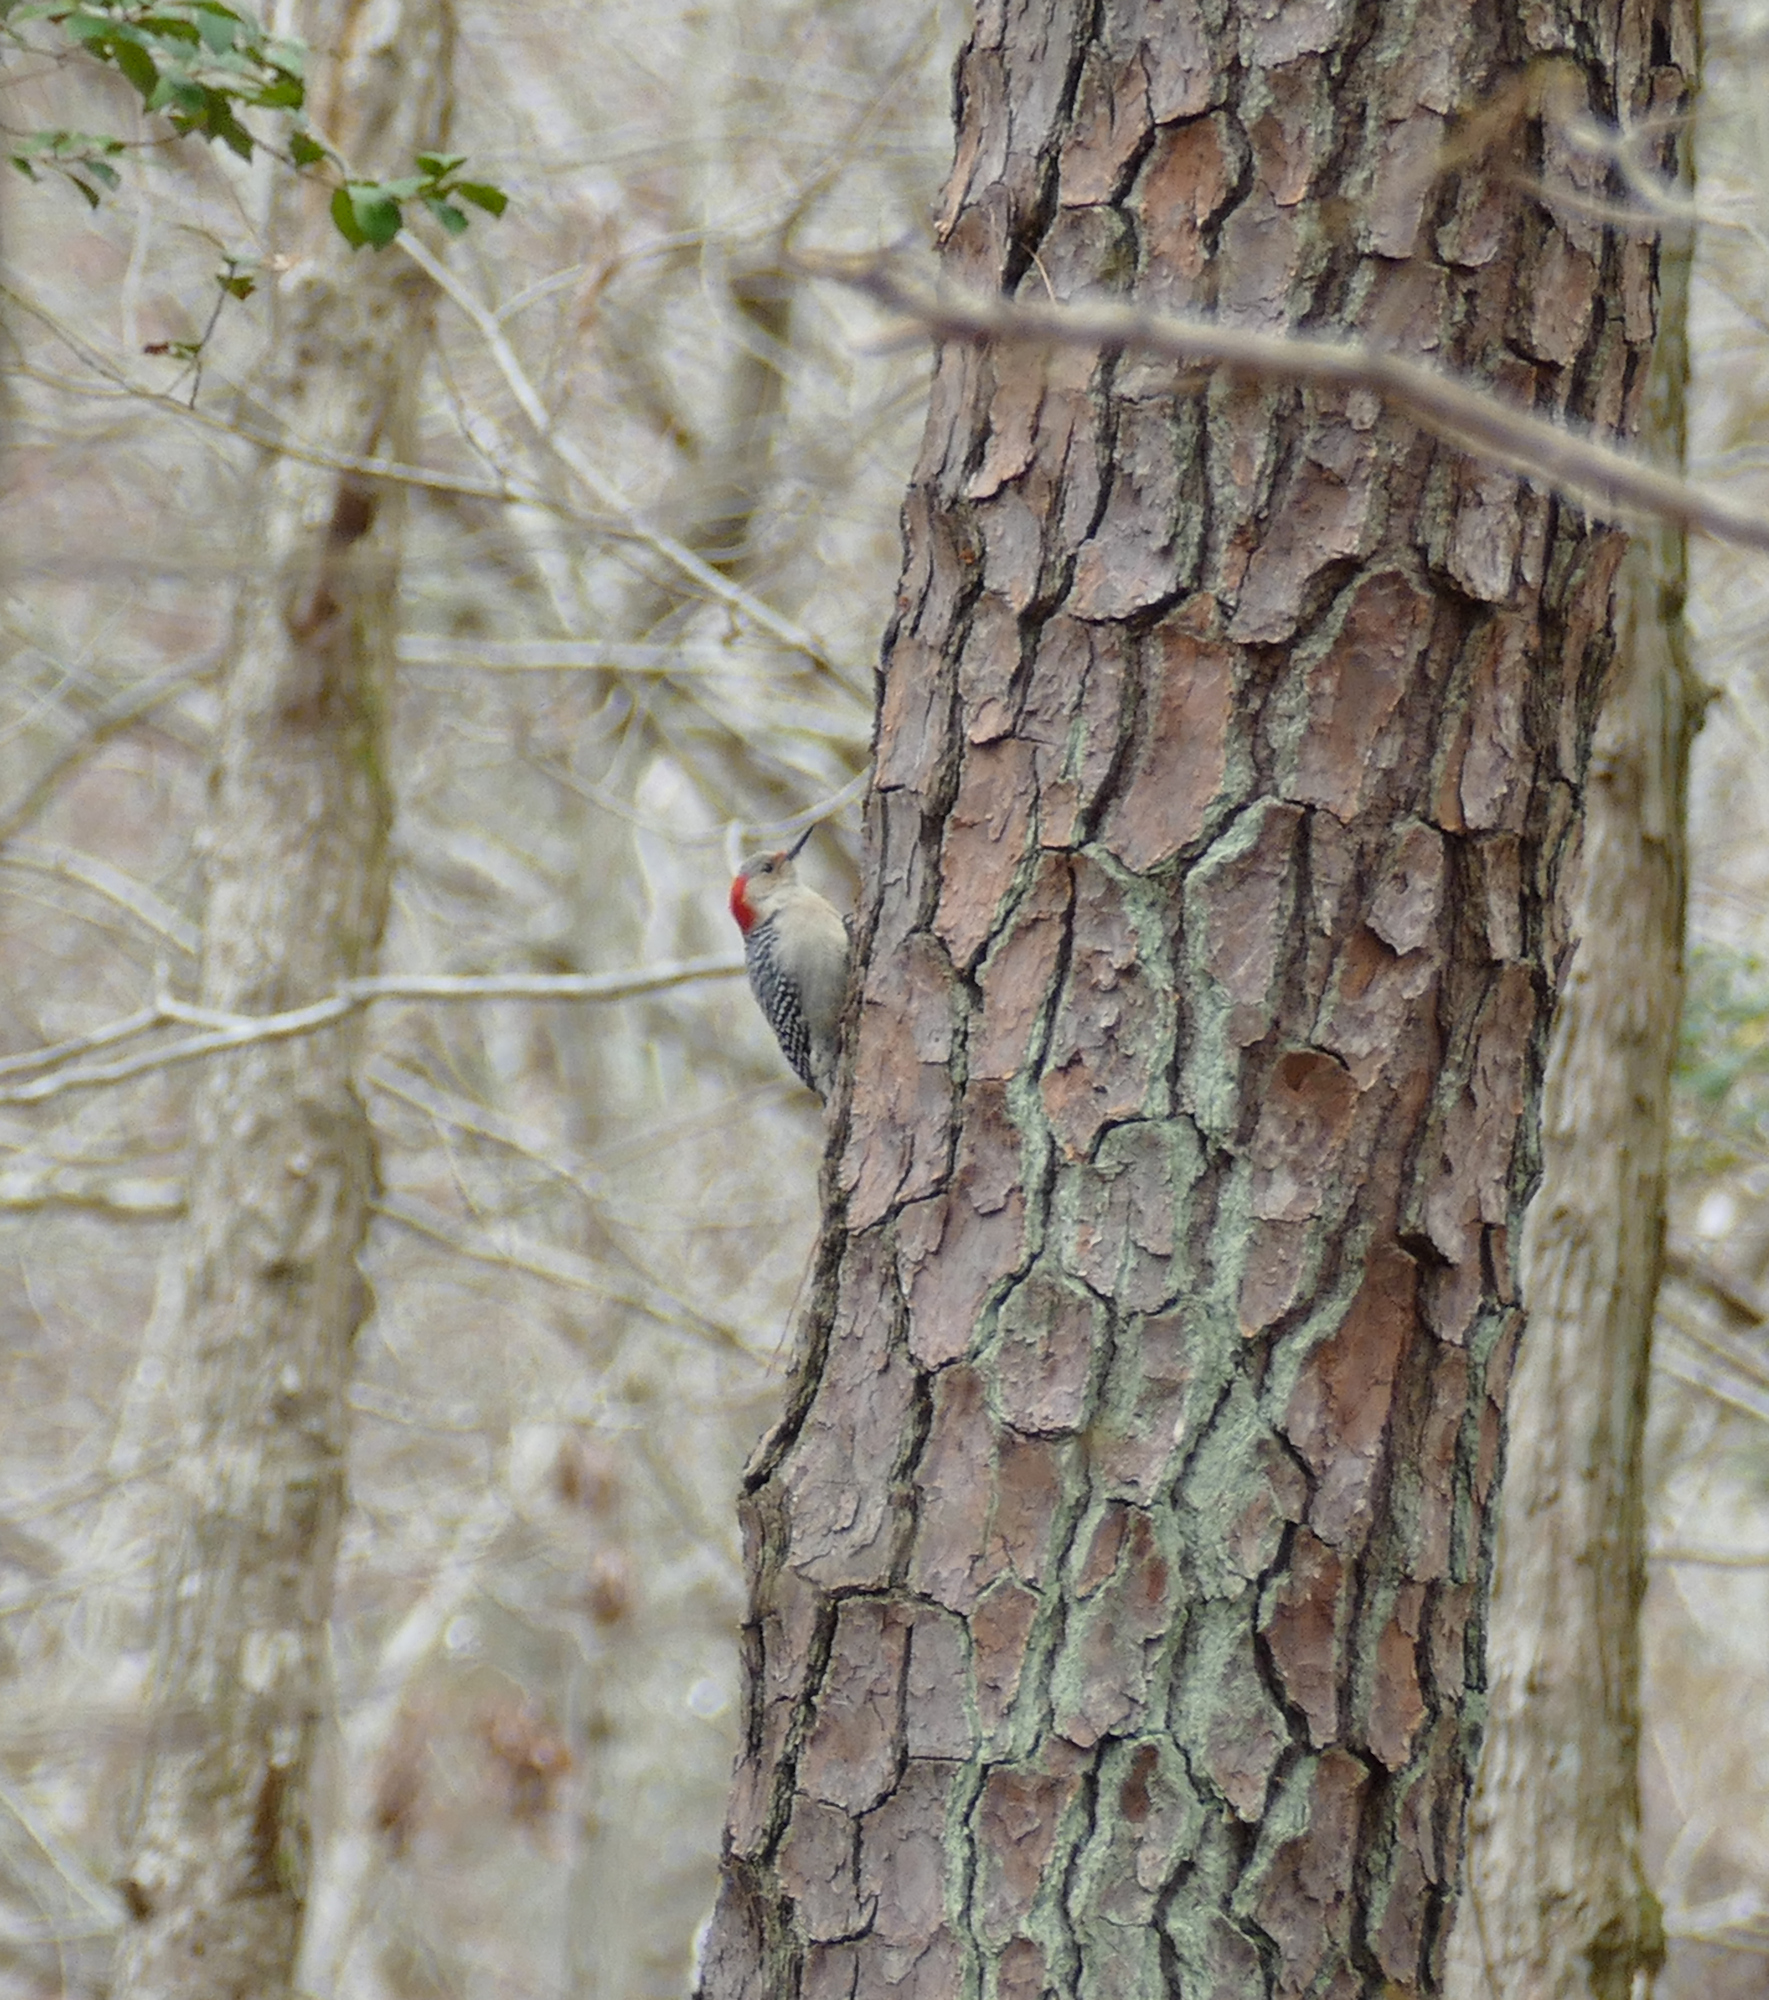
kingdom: Animalia
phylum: Chordata
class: Aves
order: Piciformes
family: Picidae
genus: Melanerpes
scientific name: Melanerpes carolinus
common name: Red-bellied woodpecker
